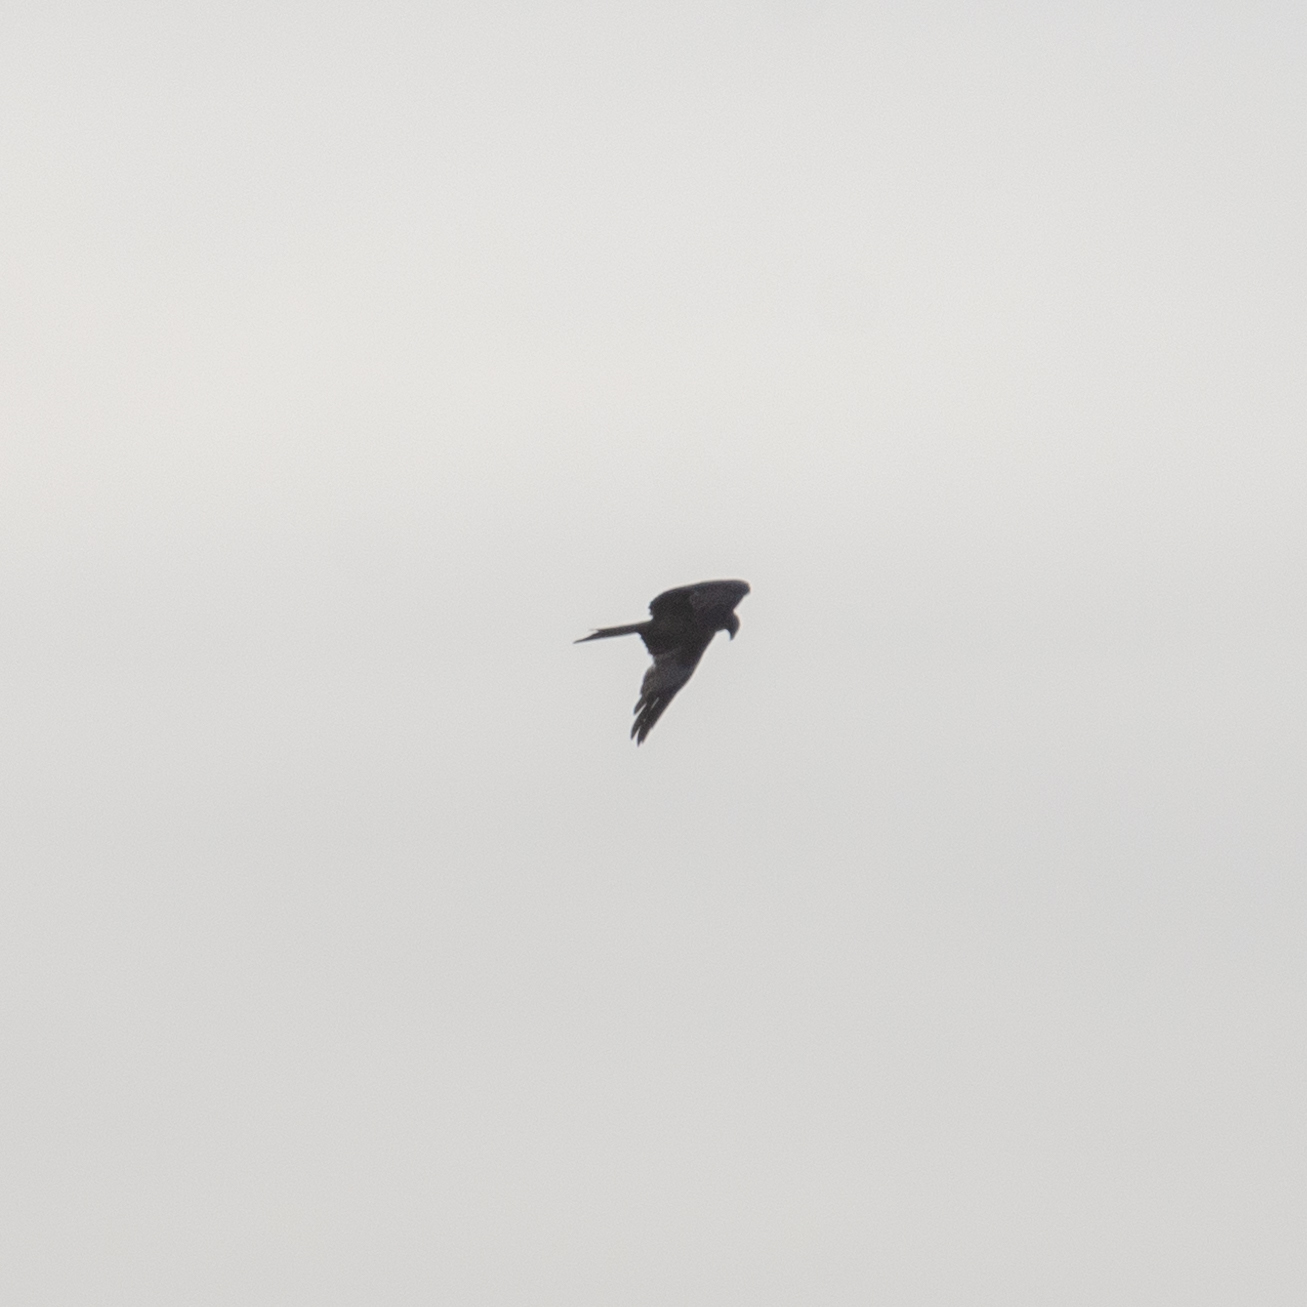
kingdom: Animalia
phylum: Chordata
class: Aves
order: Accipitriformes
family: Accipitridae
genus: Milvus
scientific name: Milvus milvus
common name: Red kite
